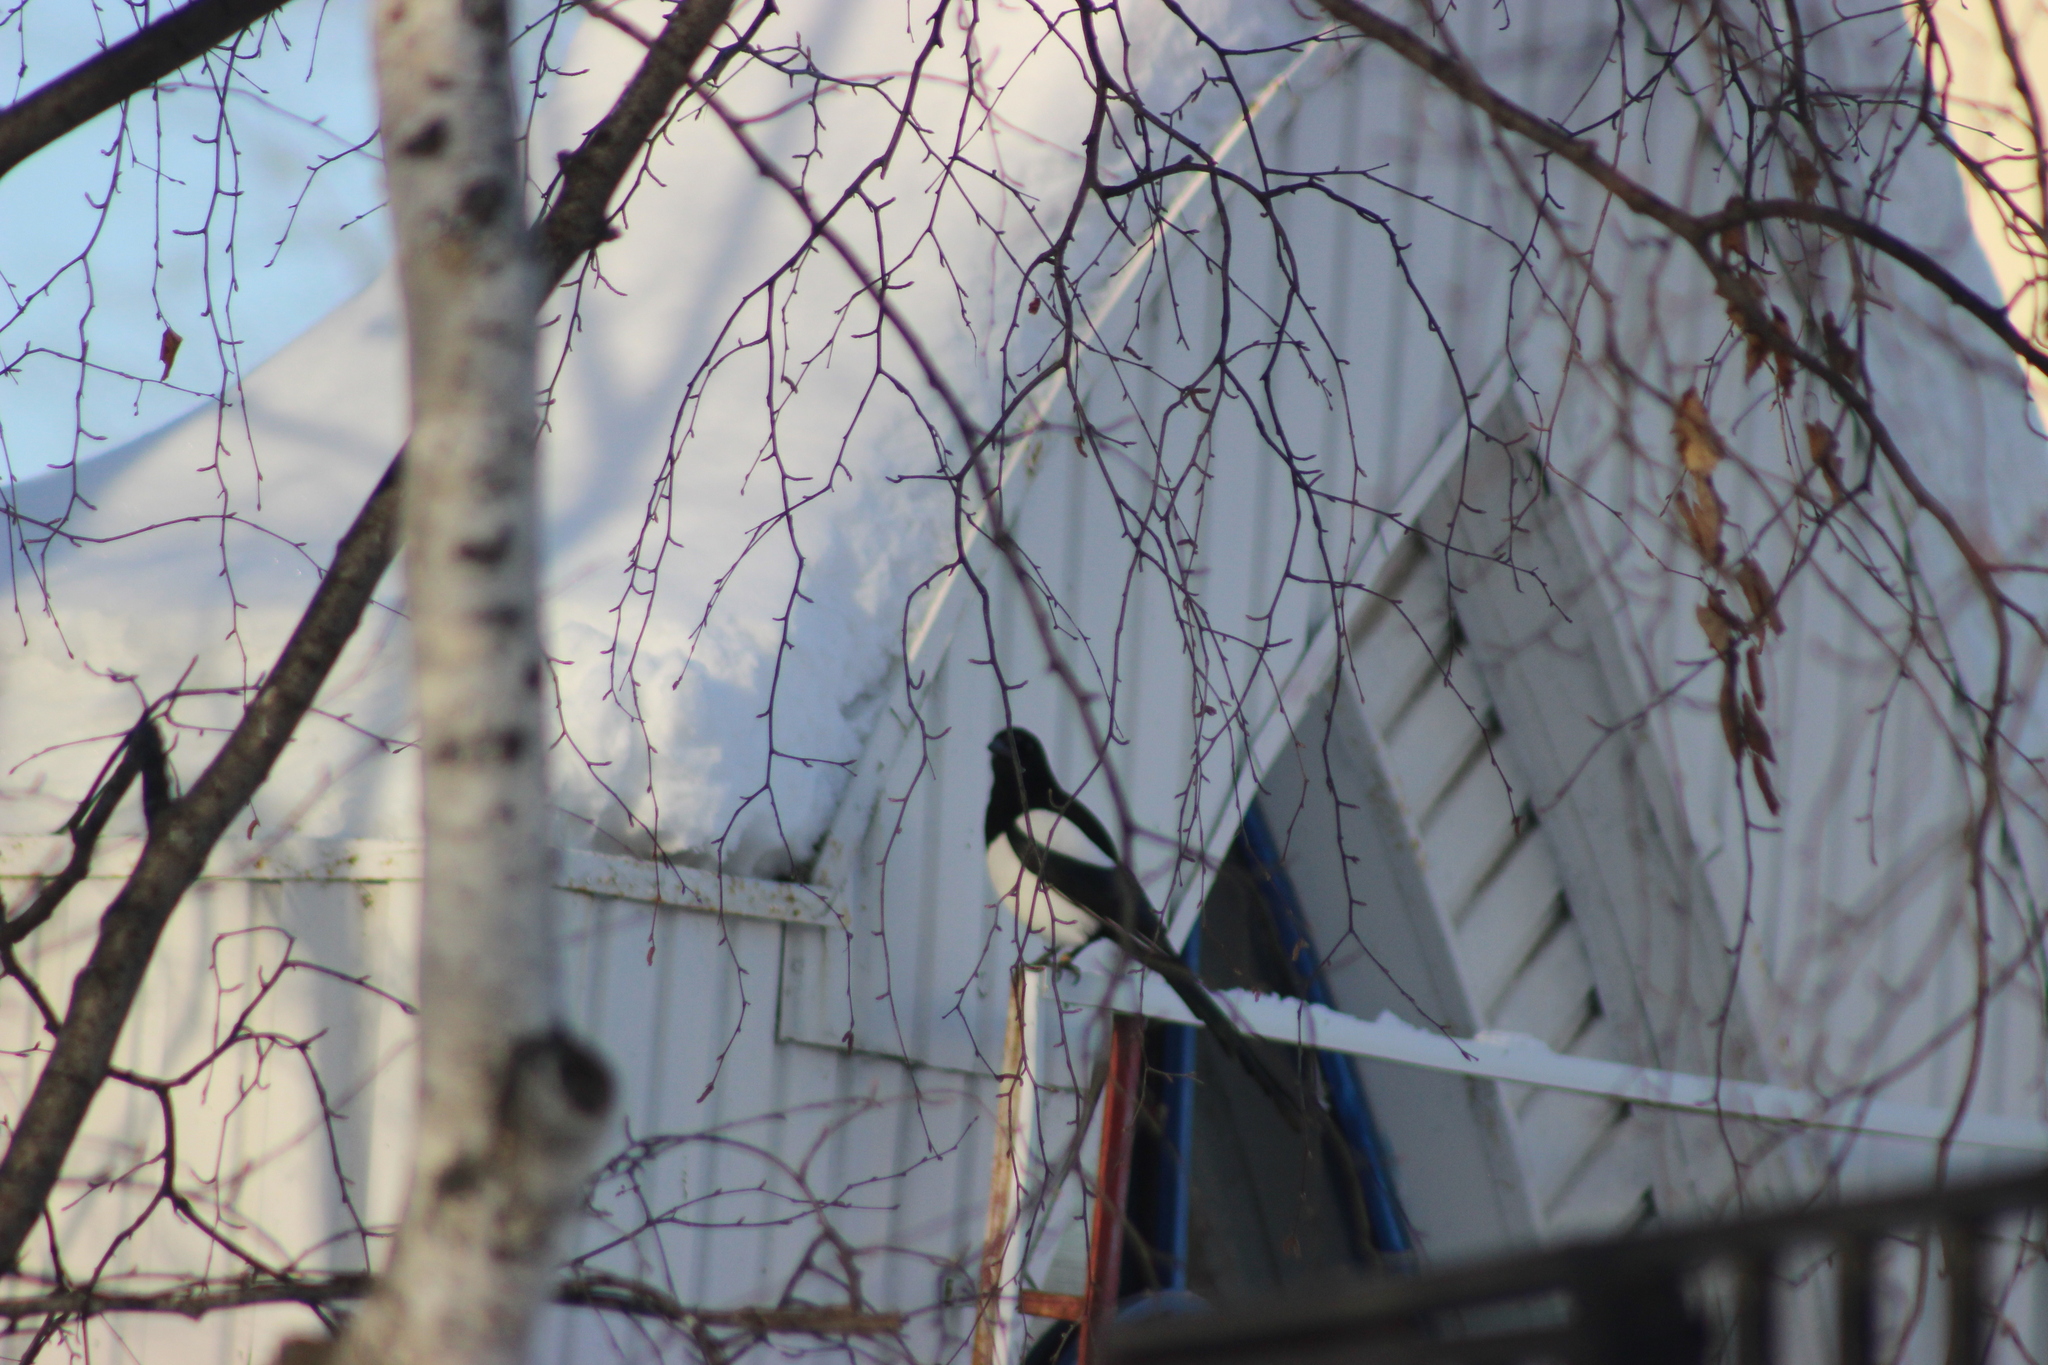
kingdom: Animalia
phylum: Chordata
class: Aves
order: Passeriformes
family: Corvidae
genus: Pica
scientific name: Pica pica
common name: Eurasian magpie
